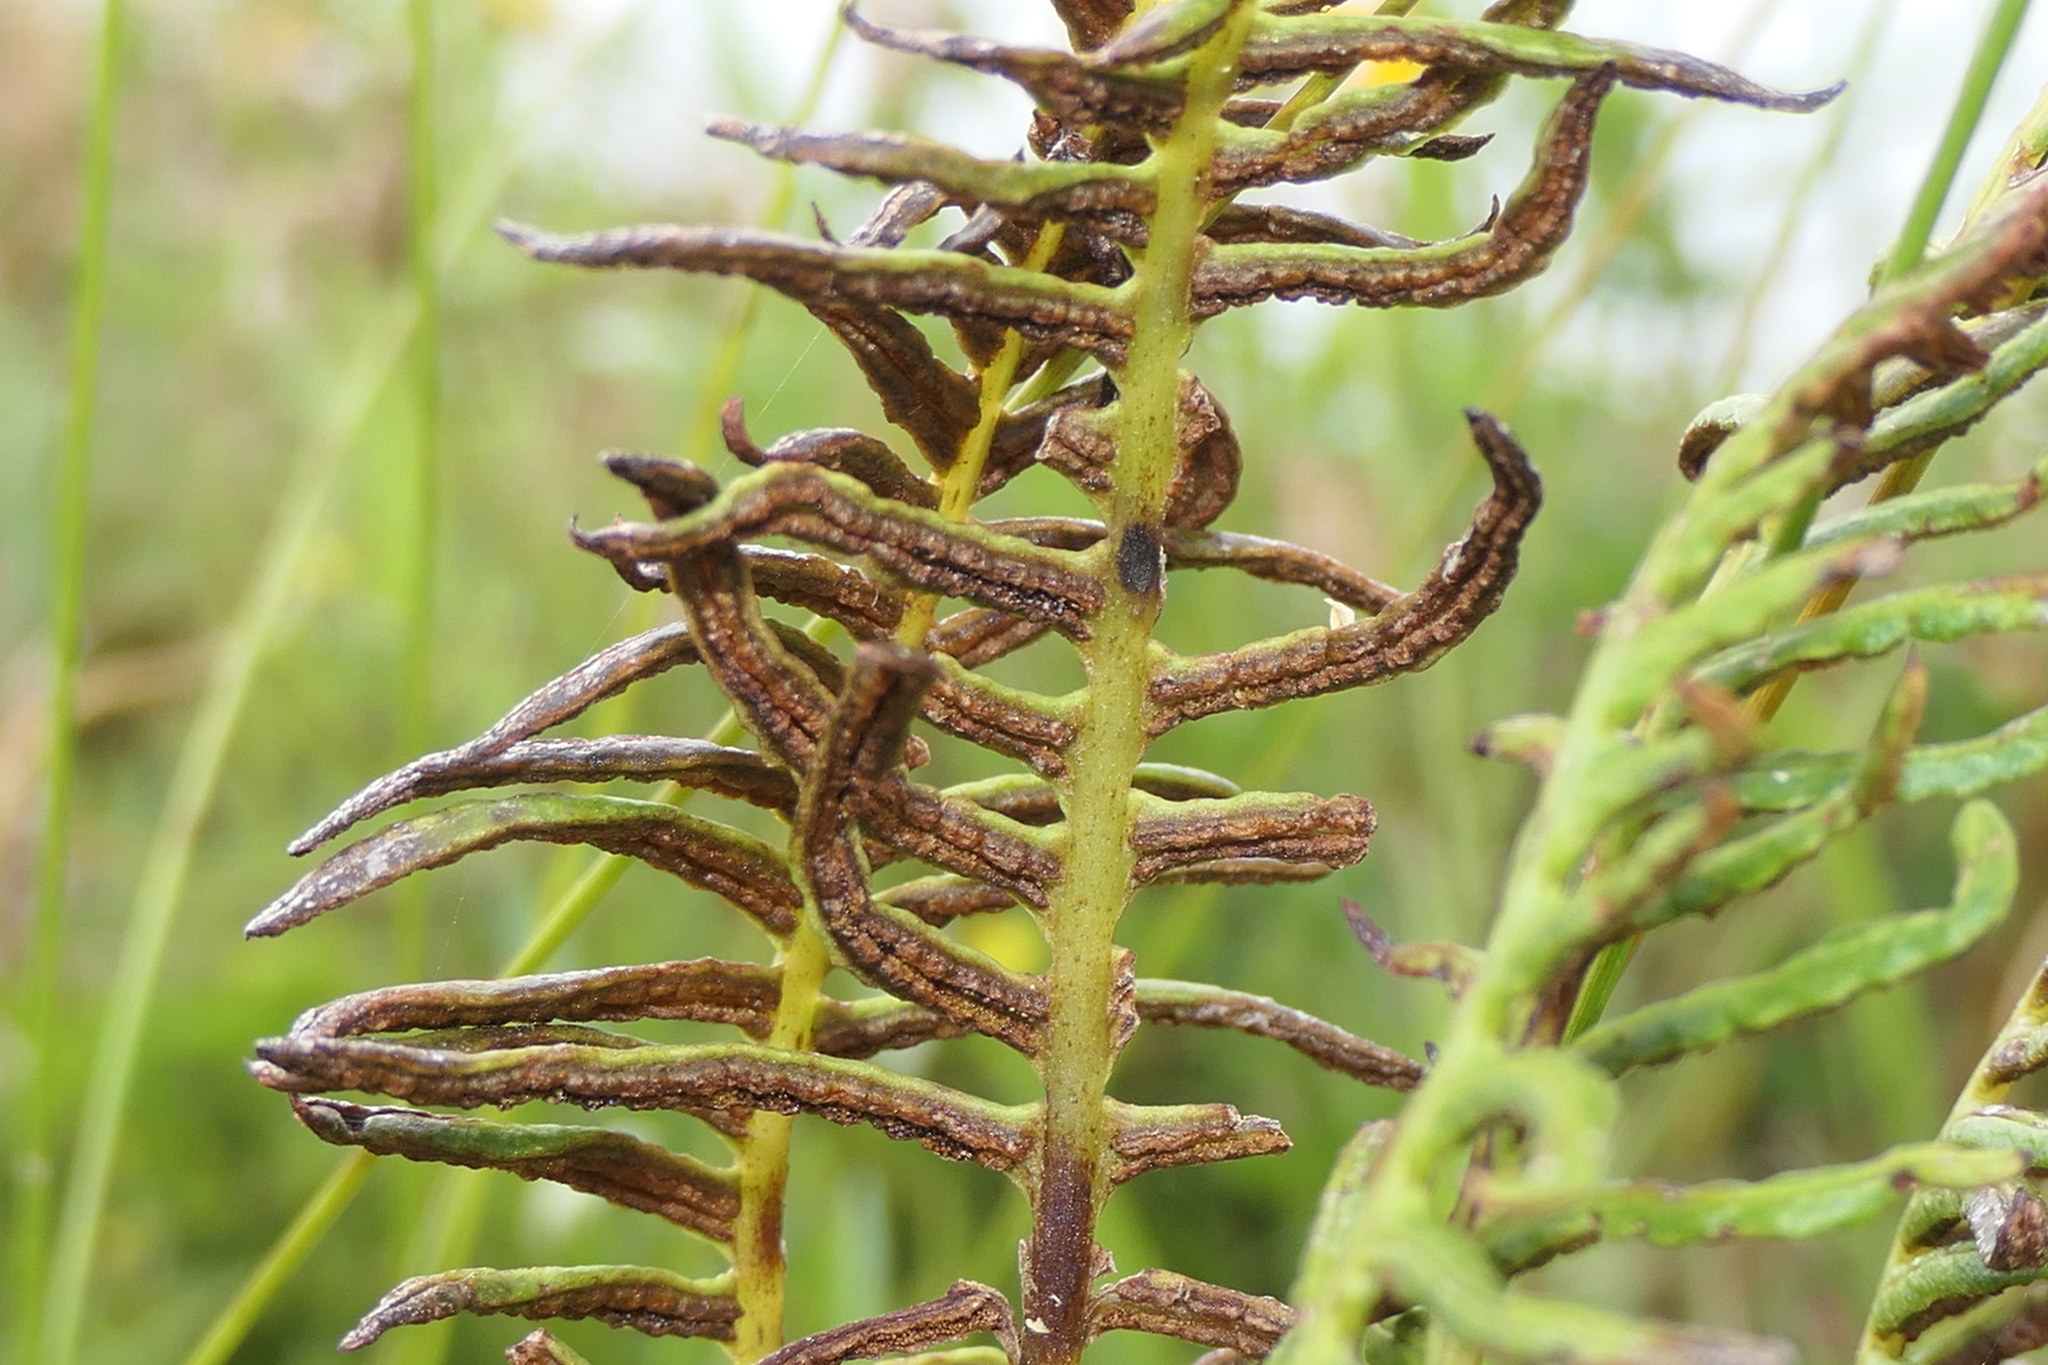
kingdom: Plantae
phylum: Tracheophyta
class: Polypodiopsida
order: Polypodiales
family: Blechnaceae
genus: Struthiopteris
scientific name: Struthiopteris spicant
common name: Deer fern
